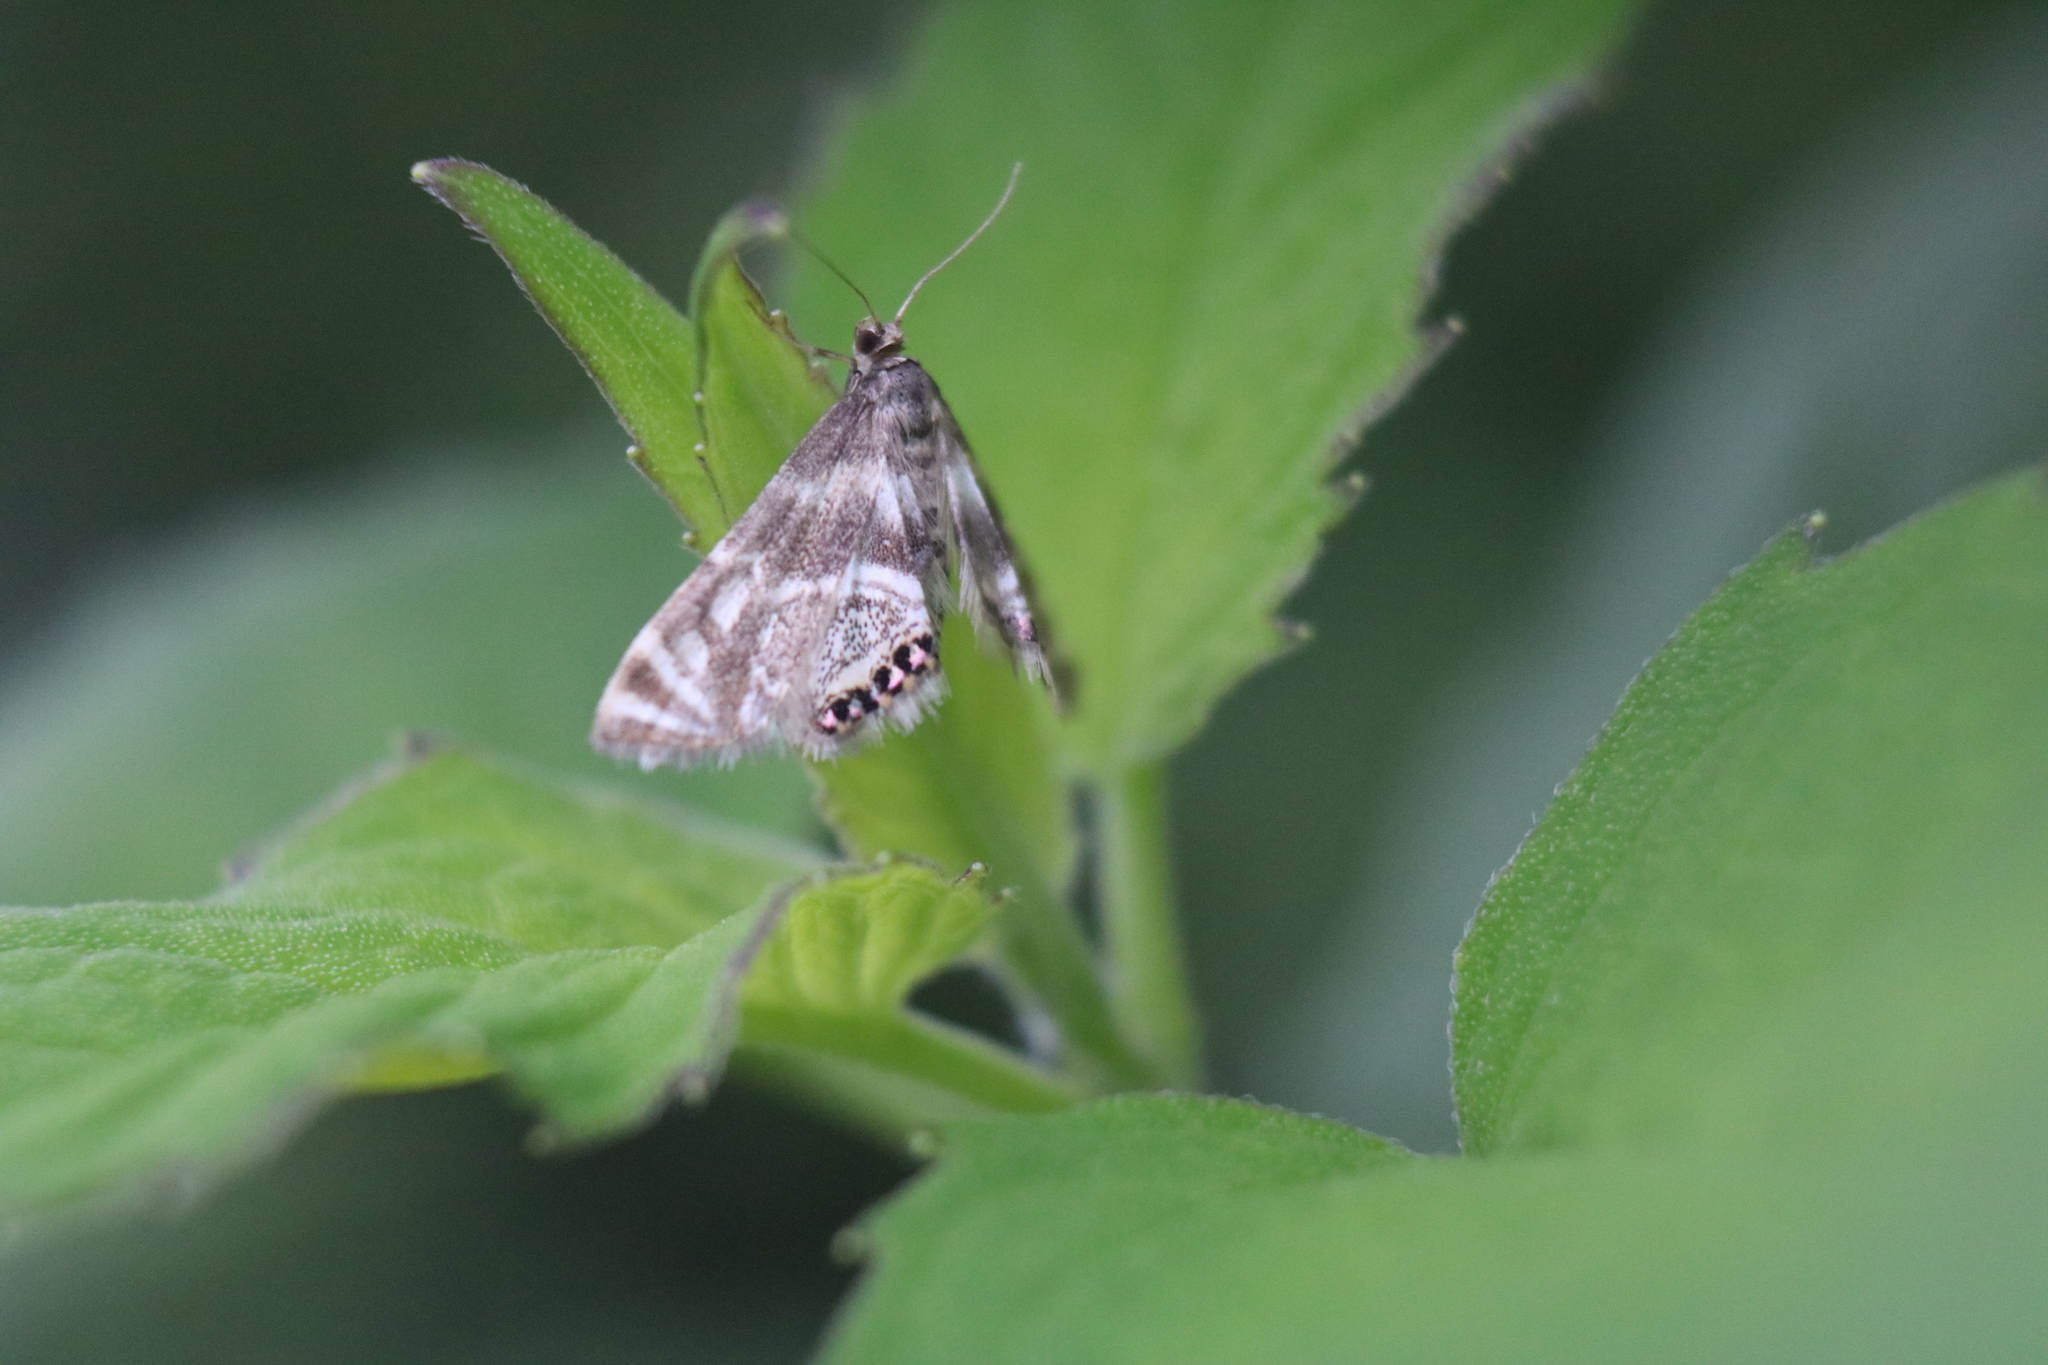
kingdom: Animalia
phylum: Arthropoda
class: Insecta
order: Lepidoptera
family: Crambidae
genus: Petrophila
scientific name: Petrophila canadensis
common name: Canadian petrophila
